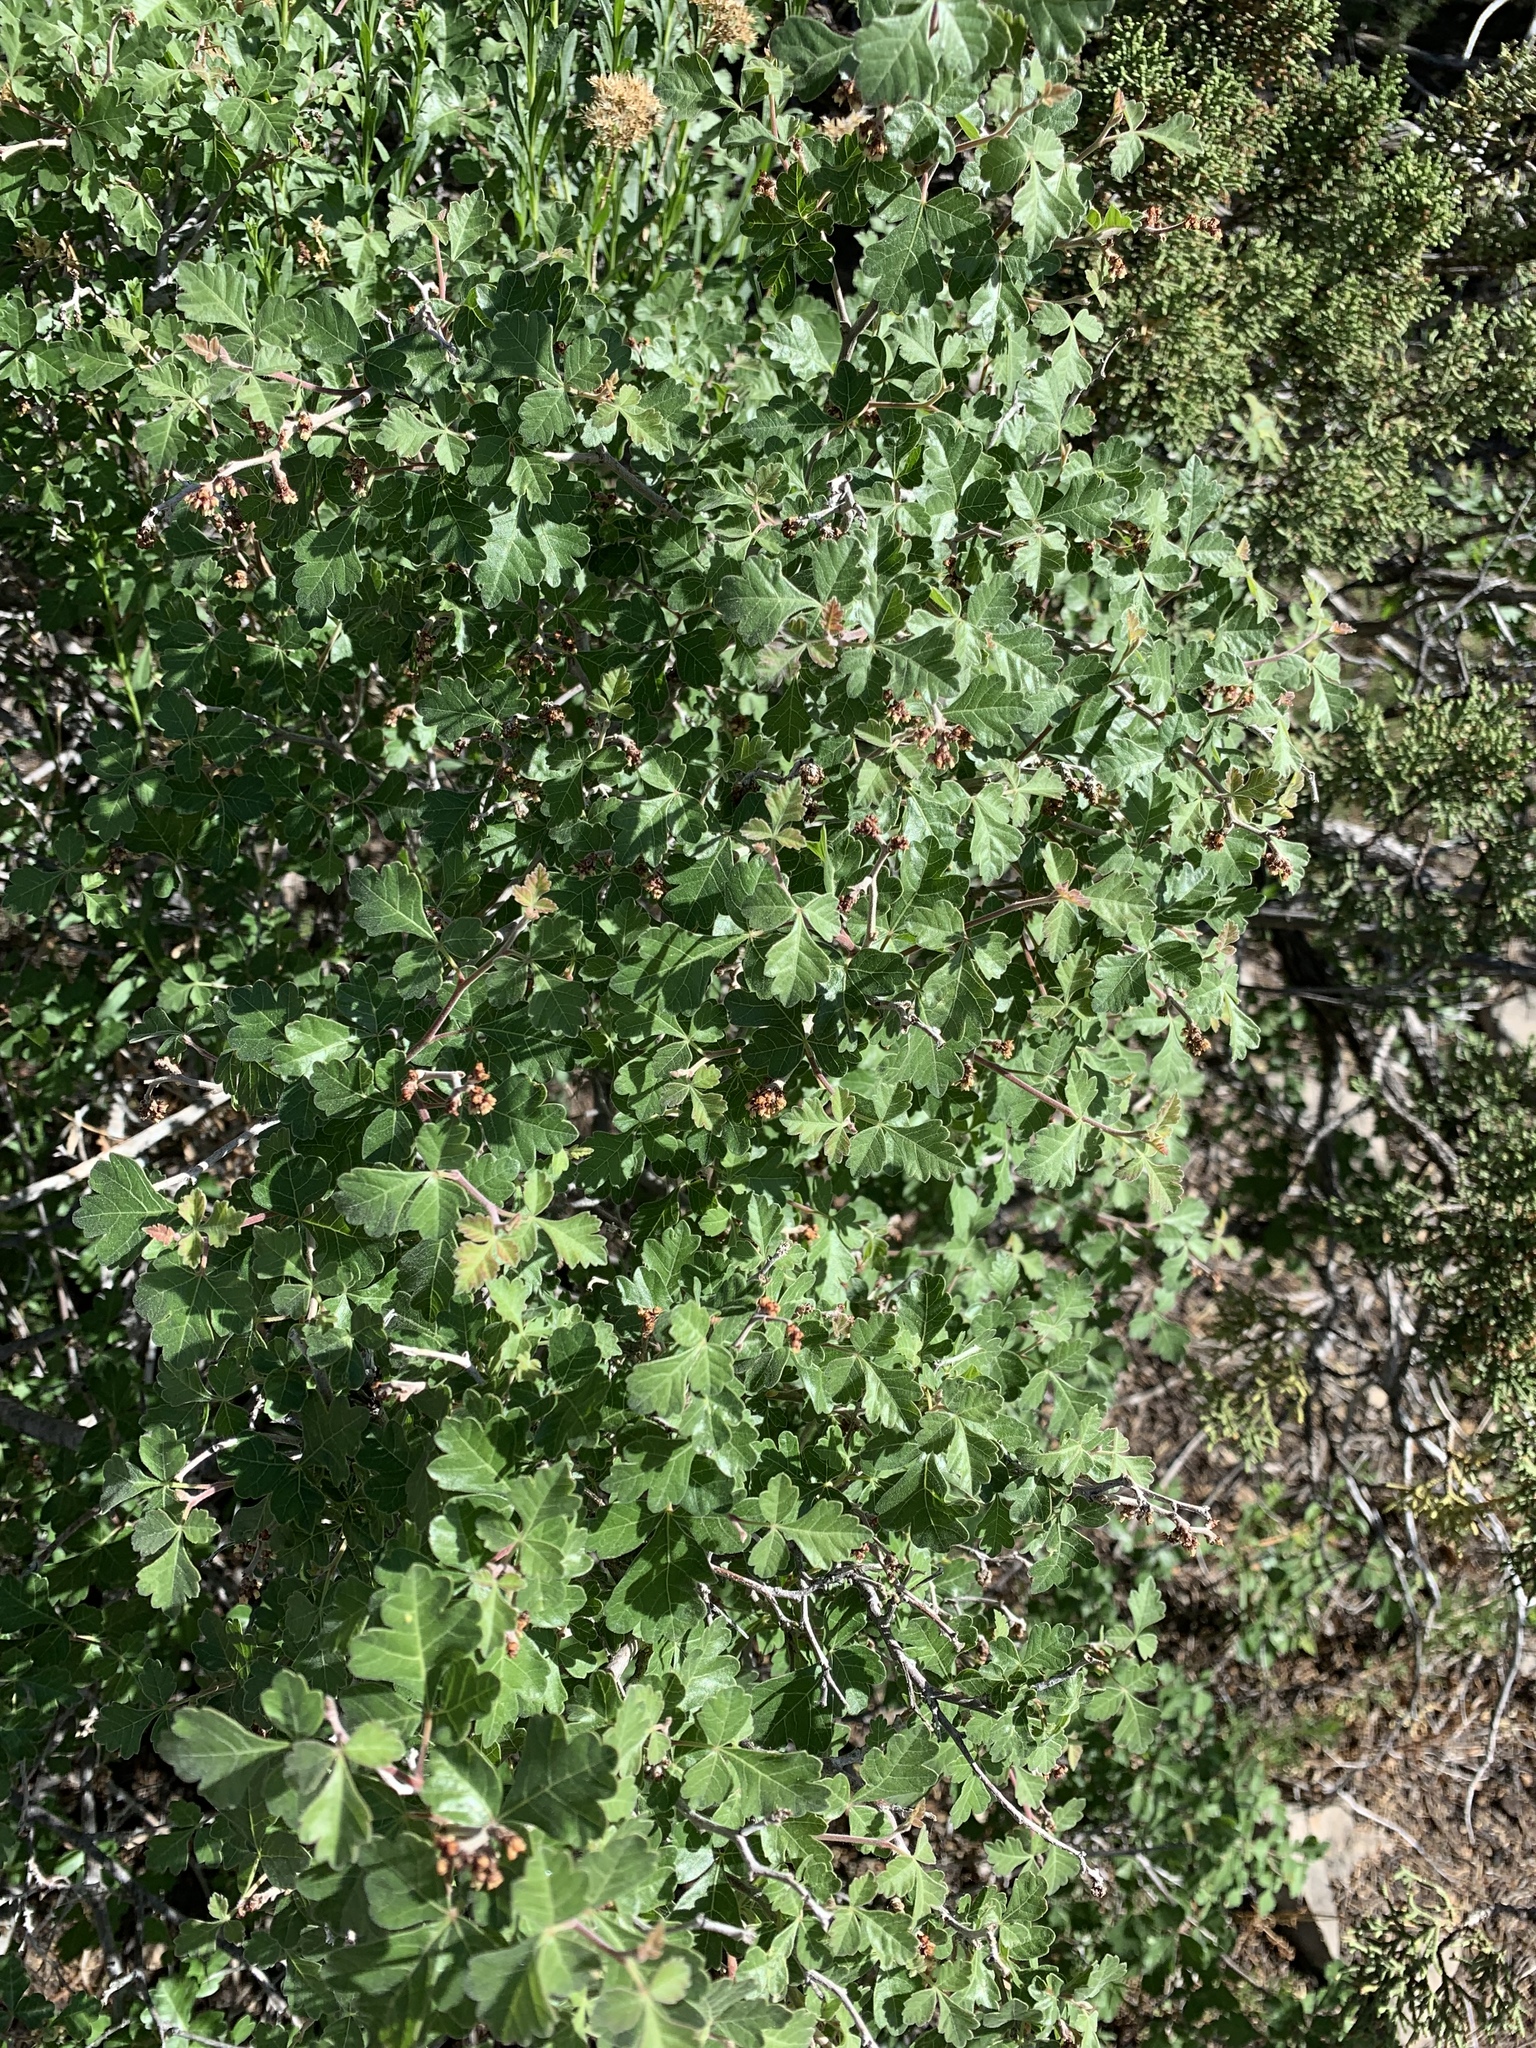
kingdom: Plantae
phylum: Tracheophyta
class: Magnoliopsida
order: Sapindales
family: Anacardiaceae
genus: Rhus
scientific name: Rhus aromatica
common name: Aromatic sumac
